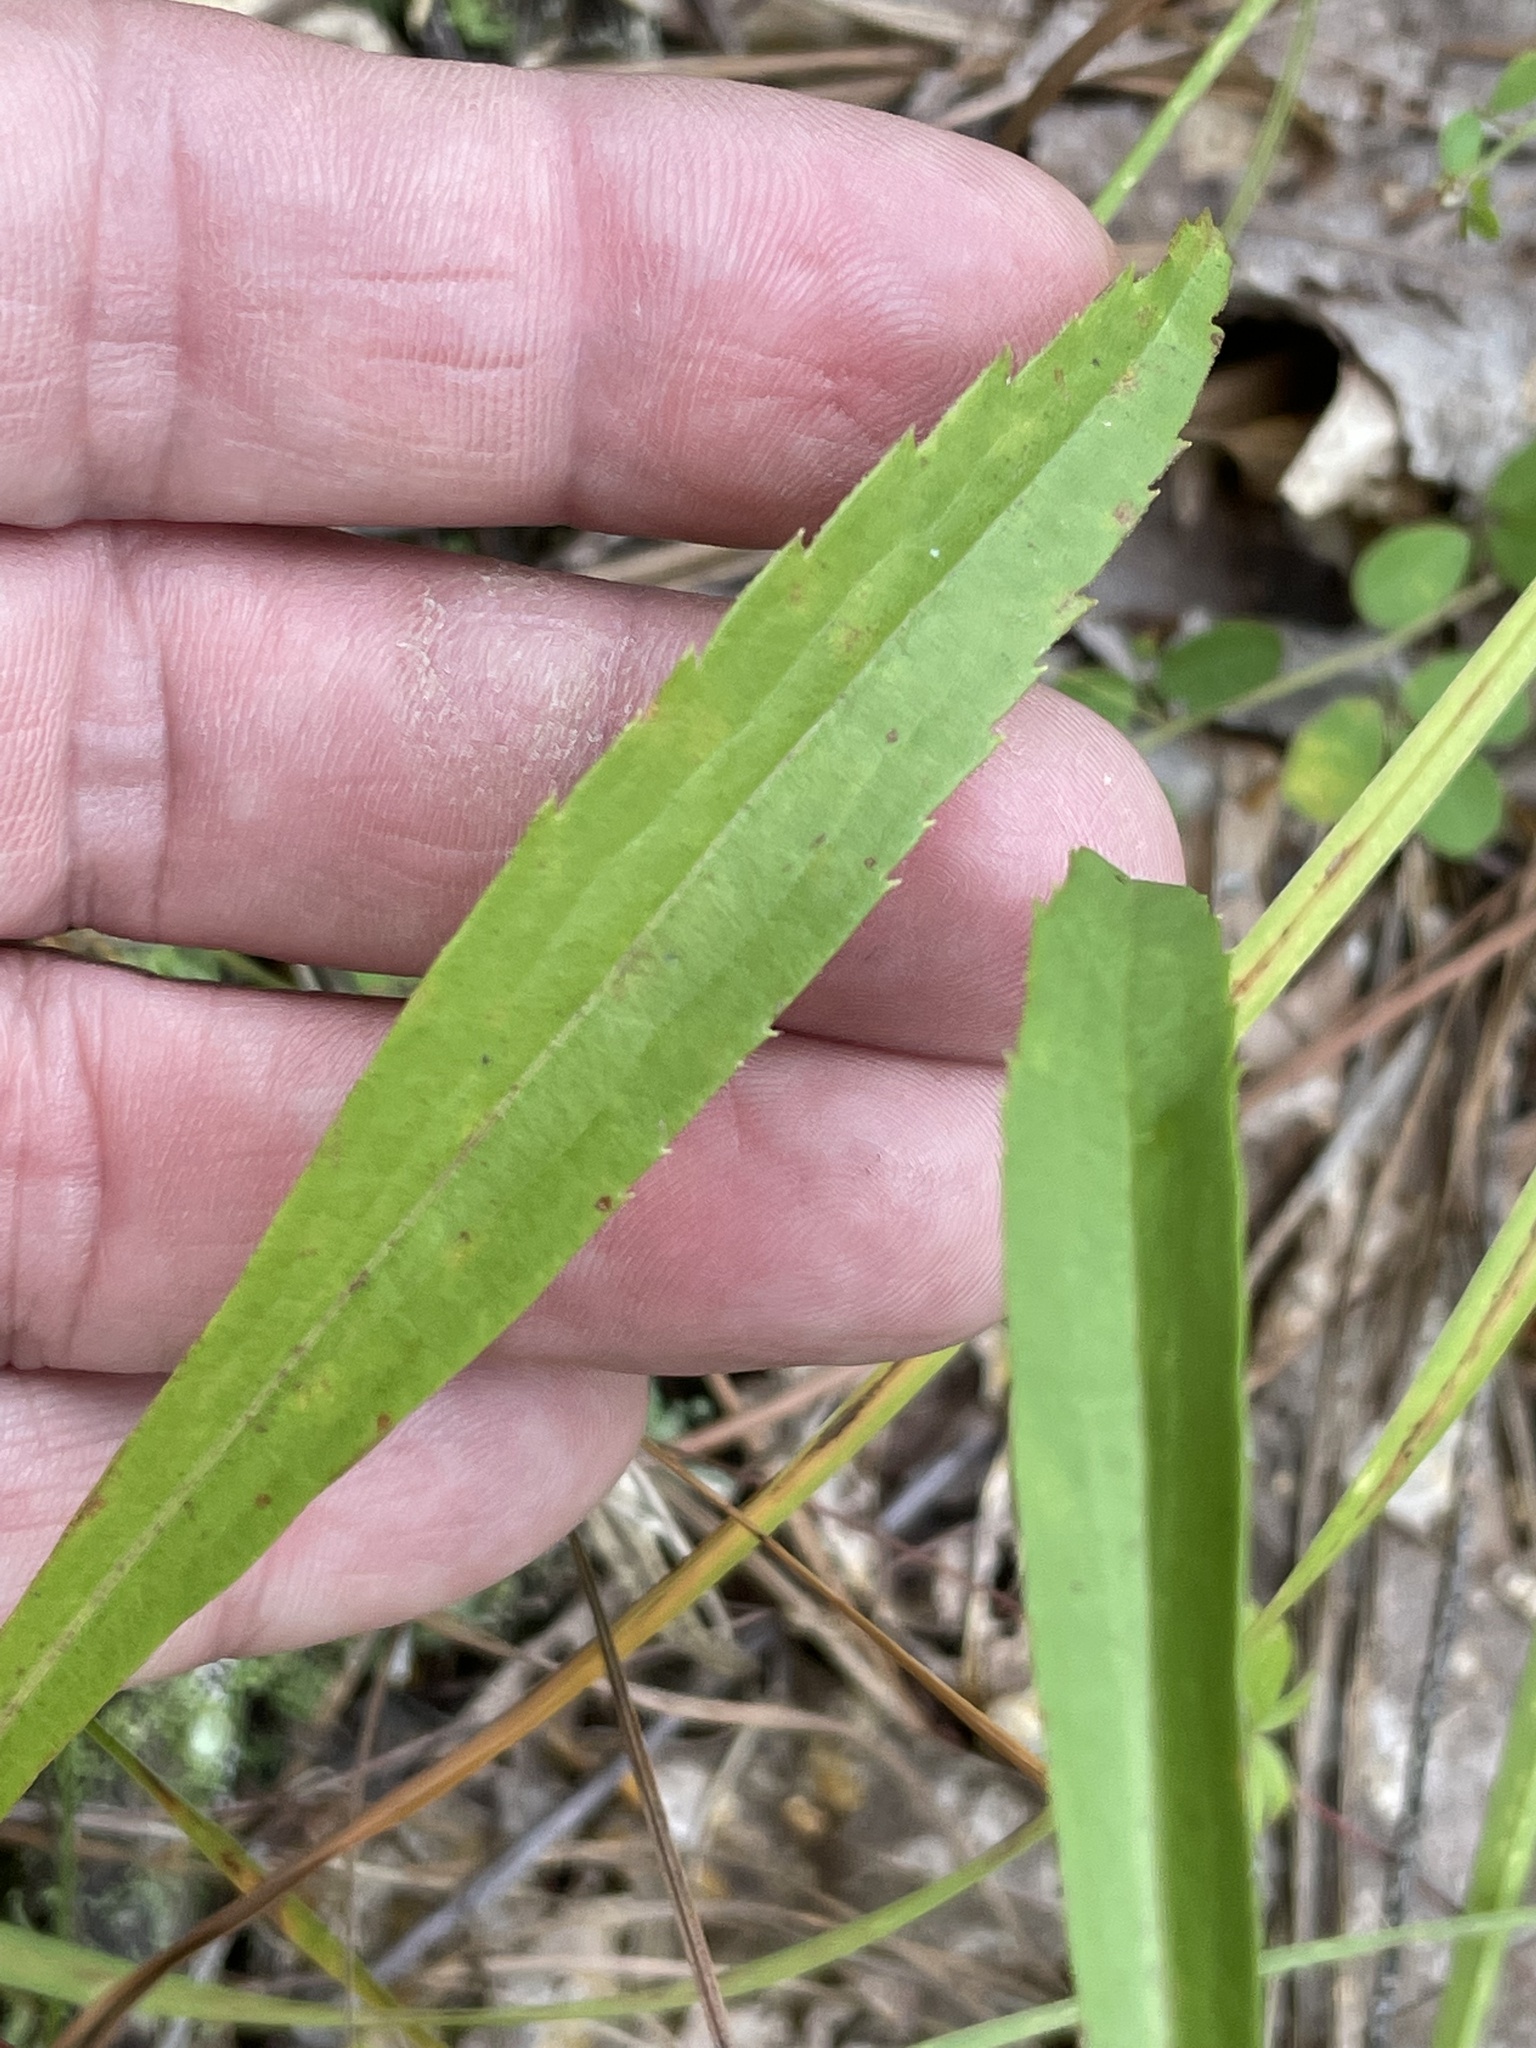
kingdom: Plantae
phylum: Tracheophyta
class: Magnoliopsida
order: Asterales
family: Asteraceae
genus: Solidago
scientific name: Solidago pinetorum
